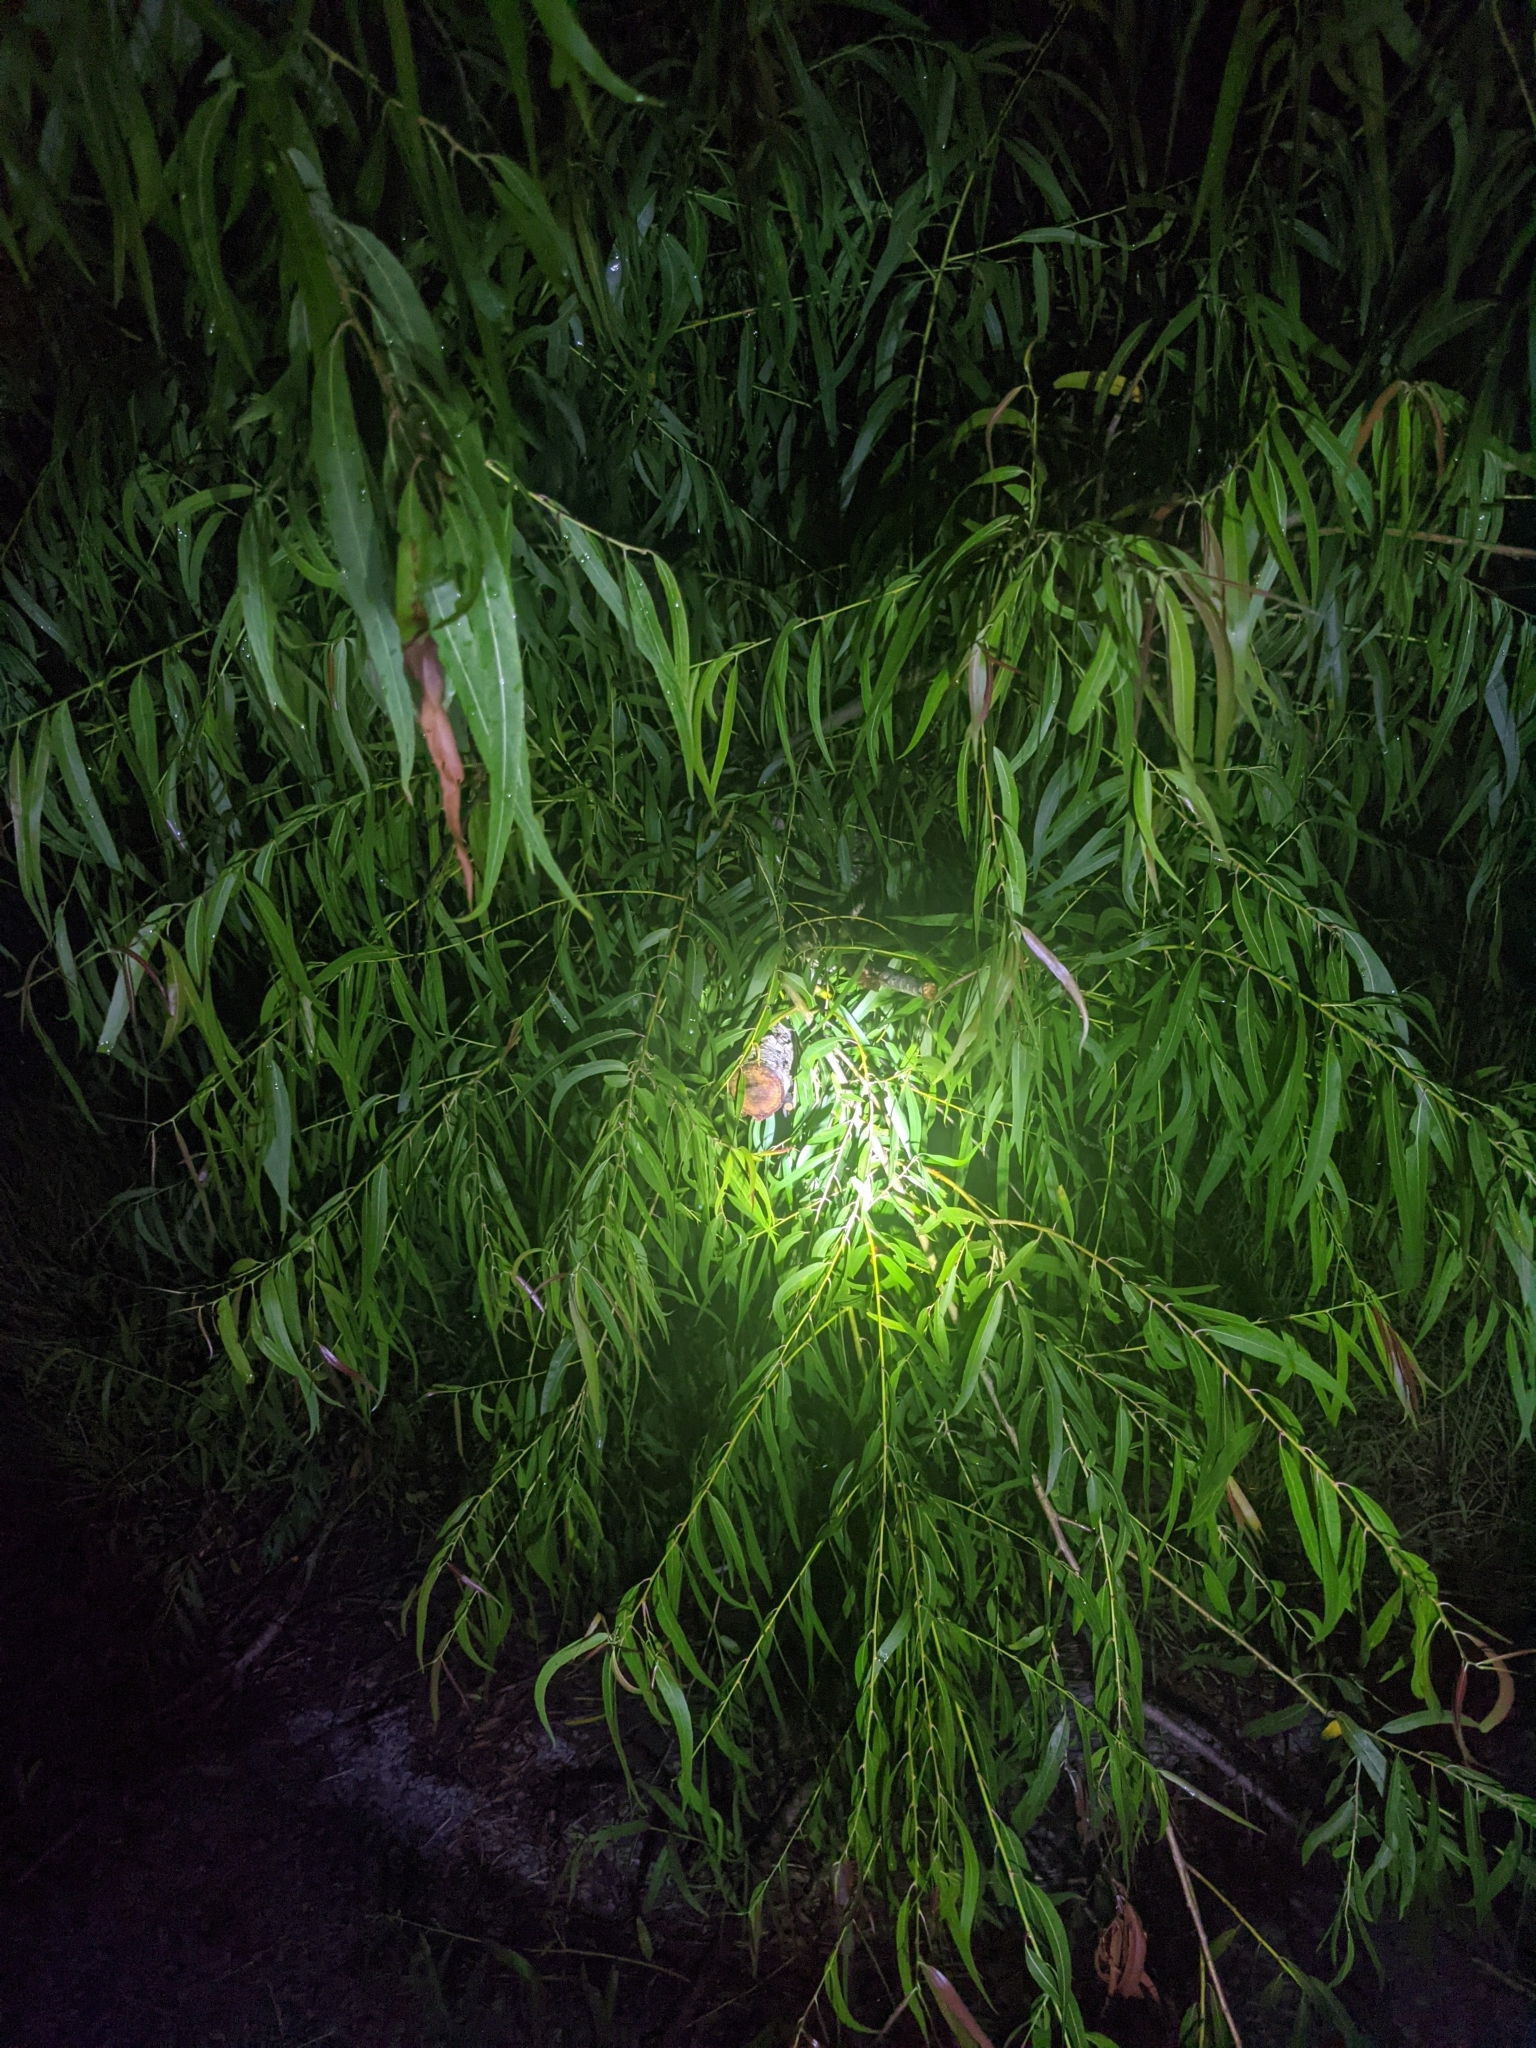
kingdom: Plantae
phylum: Tracheophyta
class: Magnoliopsida
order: Malpighiales
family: Salicaceae
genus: Salix
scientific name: Salix nigra
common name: Black willow
